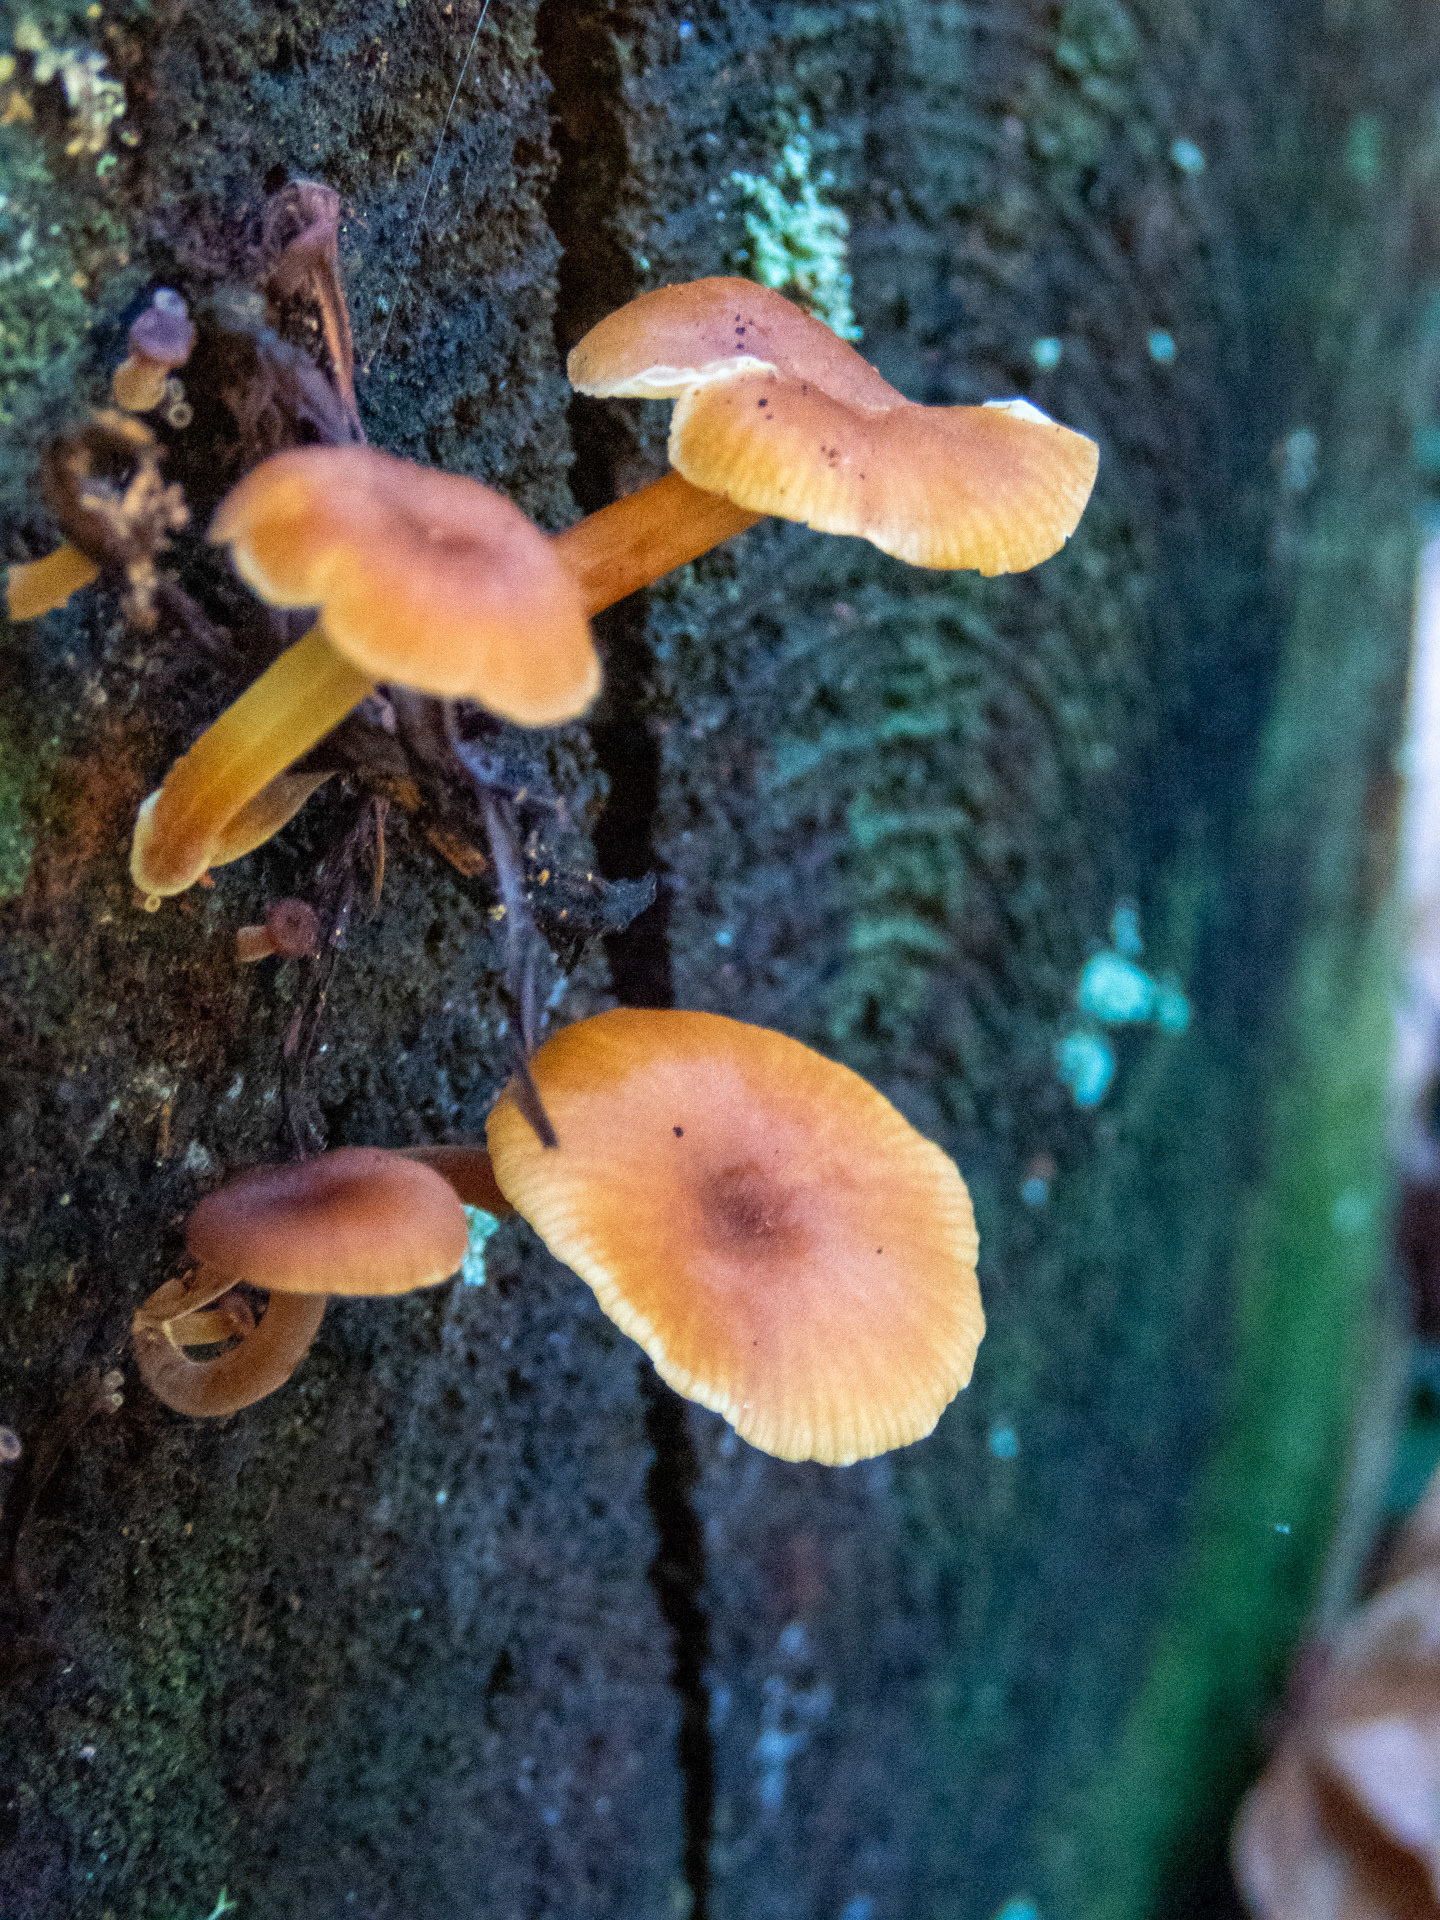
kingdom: Fungi
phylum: Basidiomycota
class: Agaricomycetes
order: Agaricales
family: Mycenaceae
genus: Xeromphalina
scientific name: Xeromphalina campanella
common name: Pinewood gingertail
